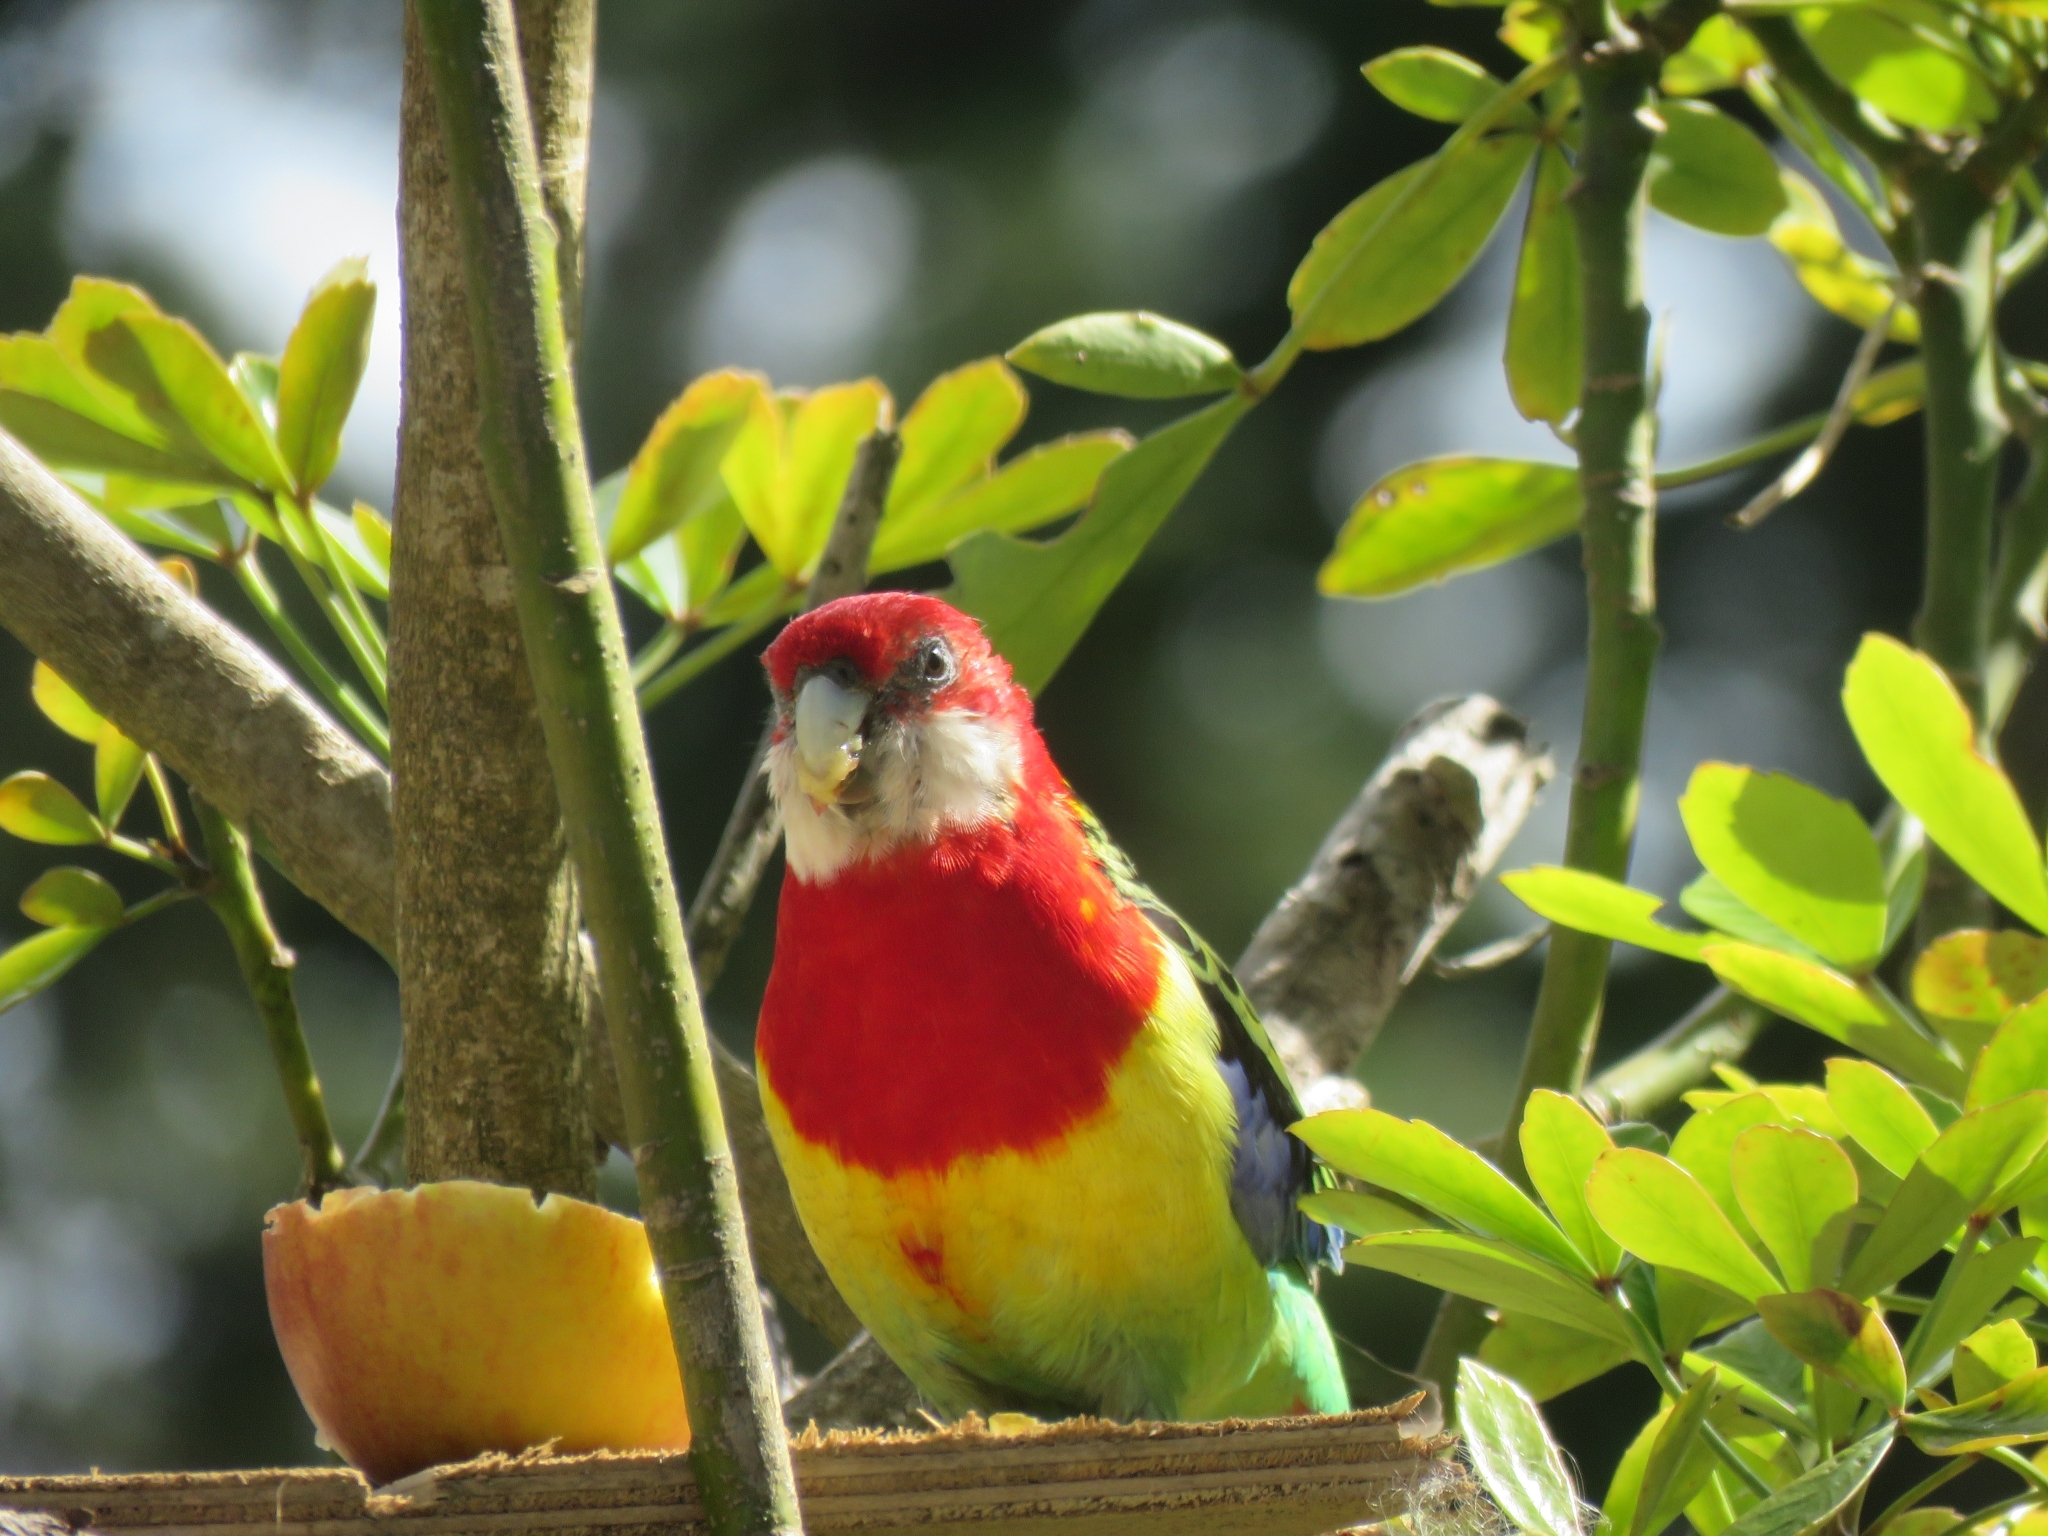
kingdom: Animalia
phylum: Chordata
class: Aves
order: Psittaciformes
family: Psittacidae
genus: Platycercus
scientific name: Platycercus eximius
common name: Eastern rosella
